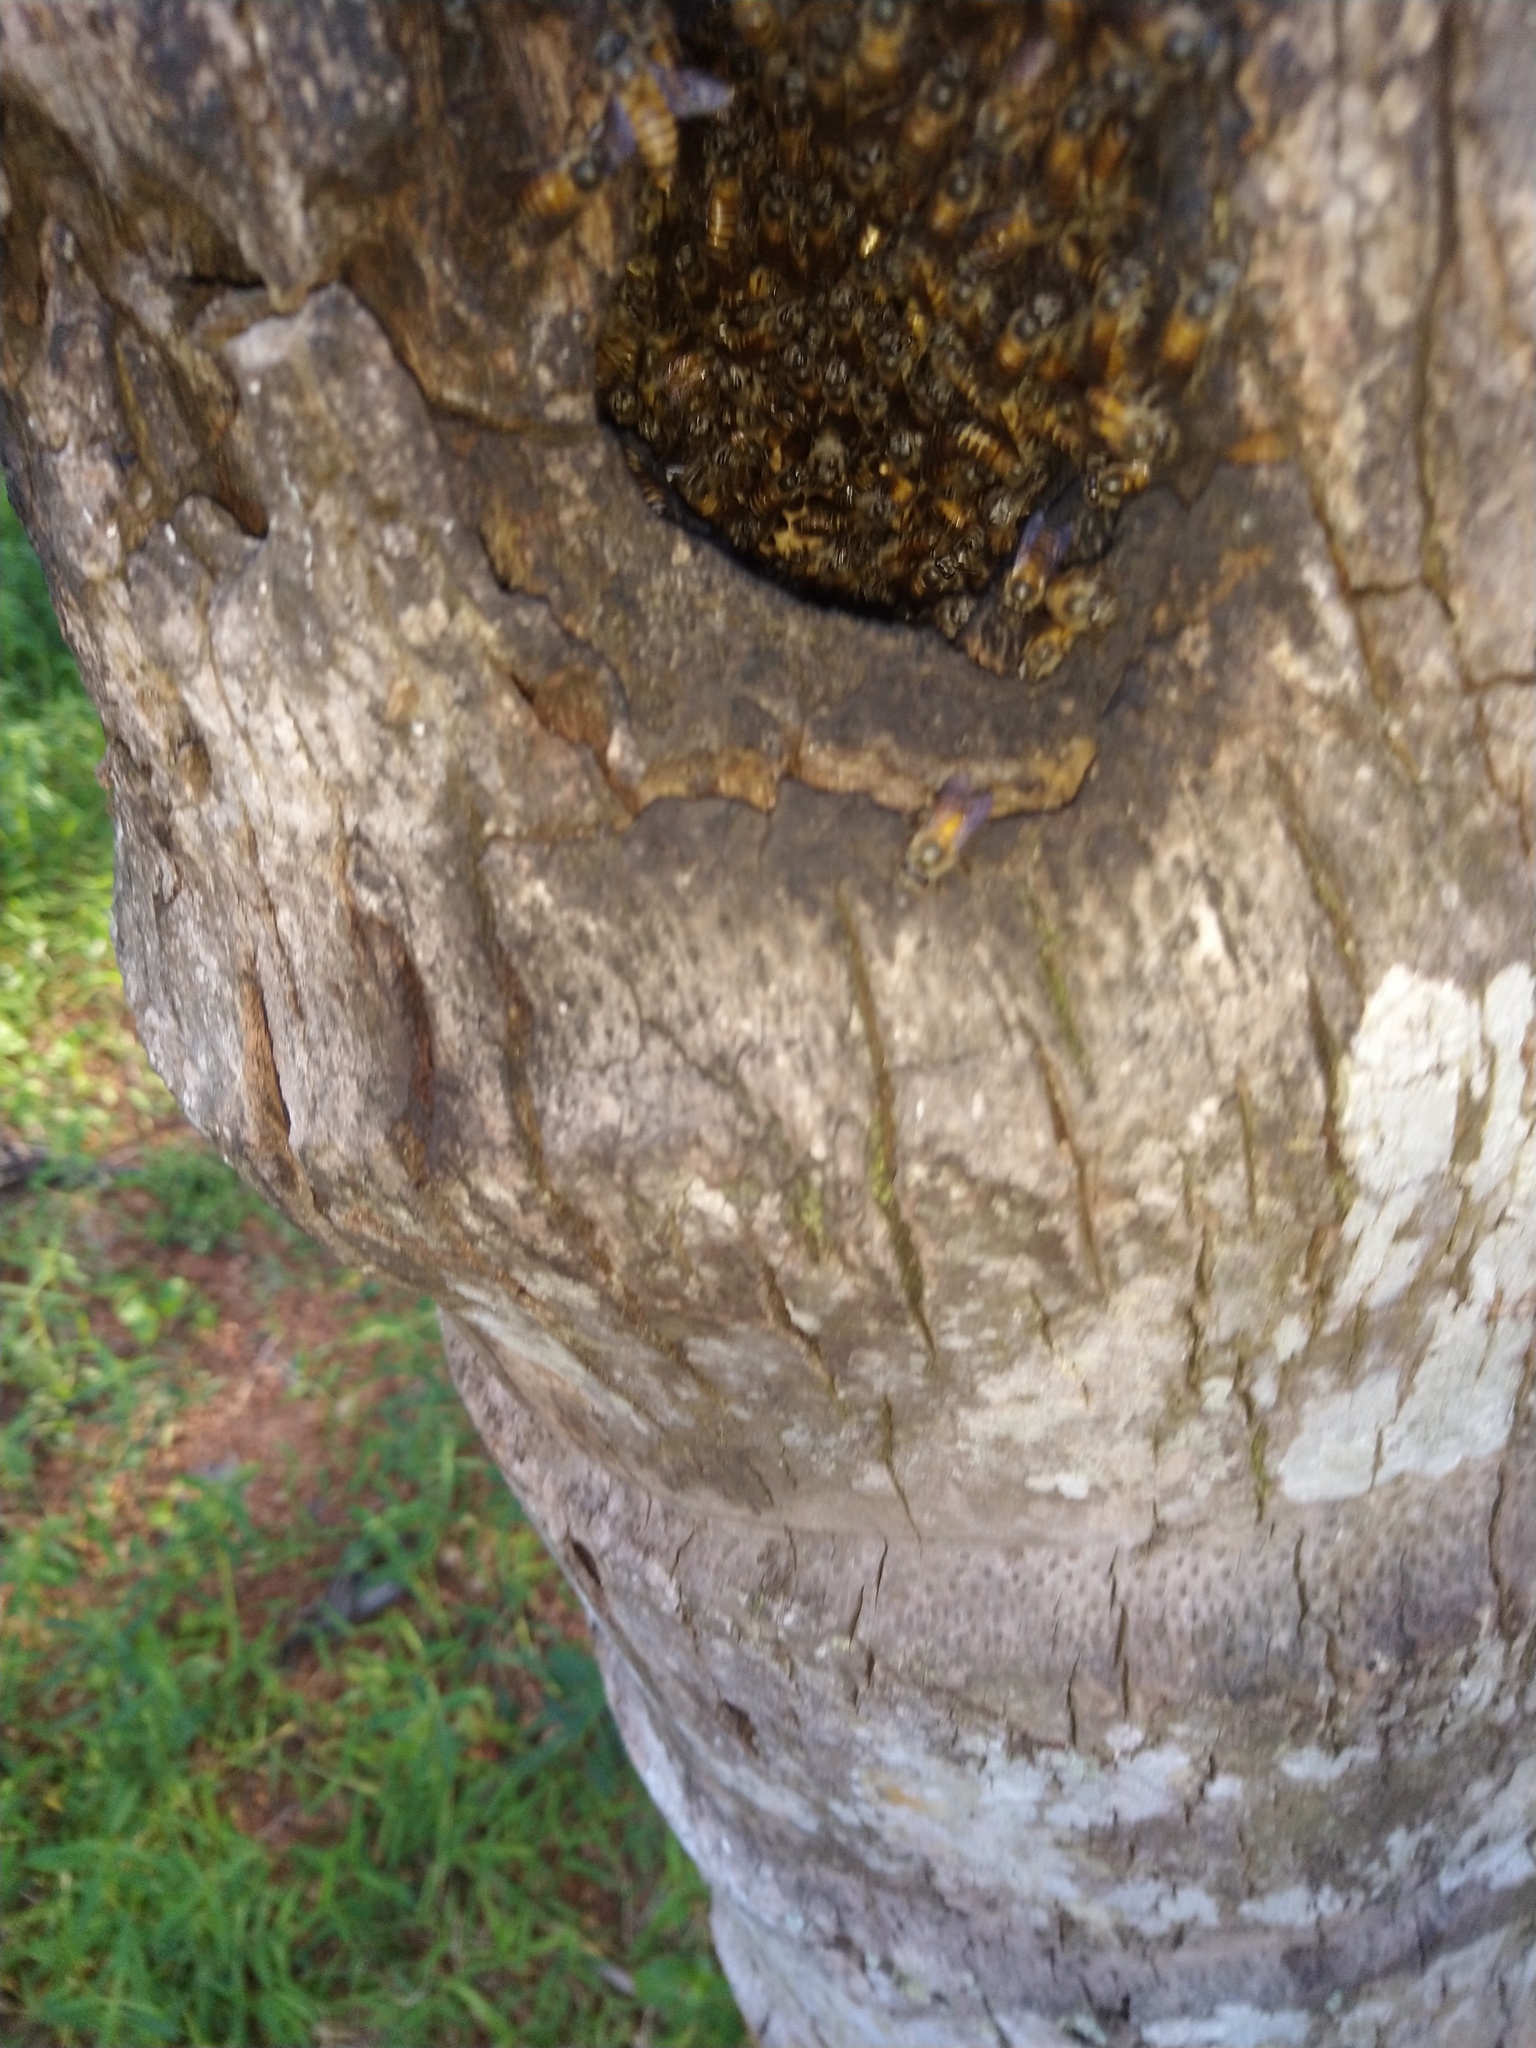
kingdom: Animalia
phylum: Arthropoda
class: Insecta
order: Hymenoptera
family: Apidae
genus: Apis
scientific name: Apis cerana
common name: Honey bee
